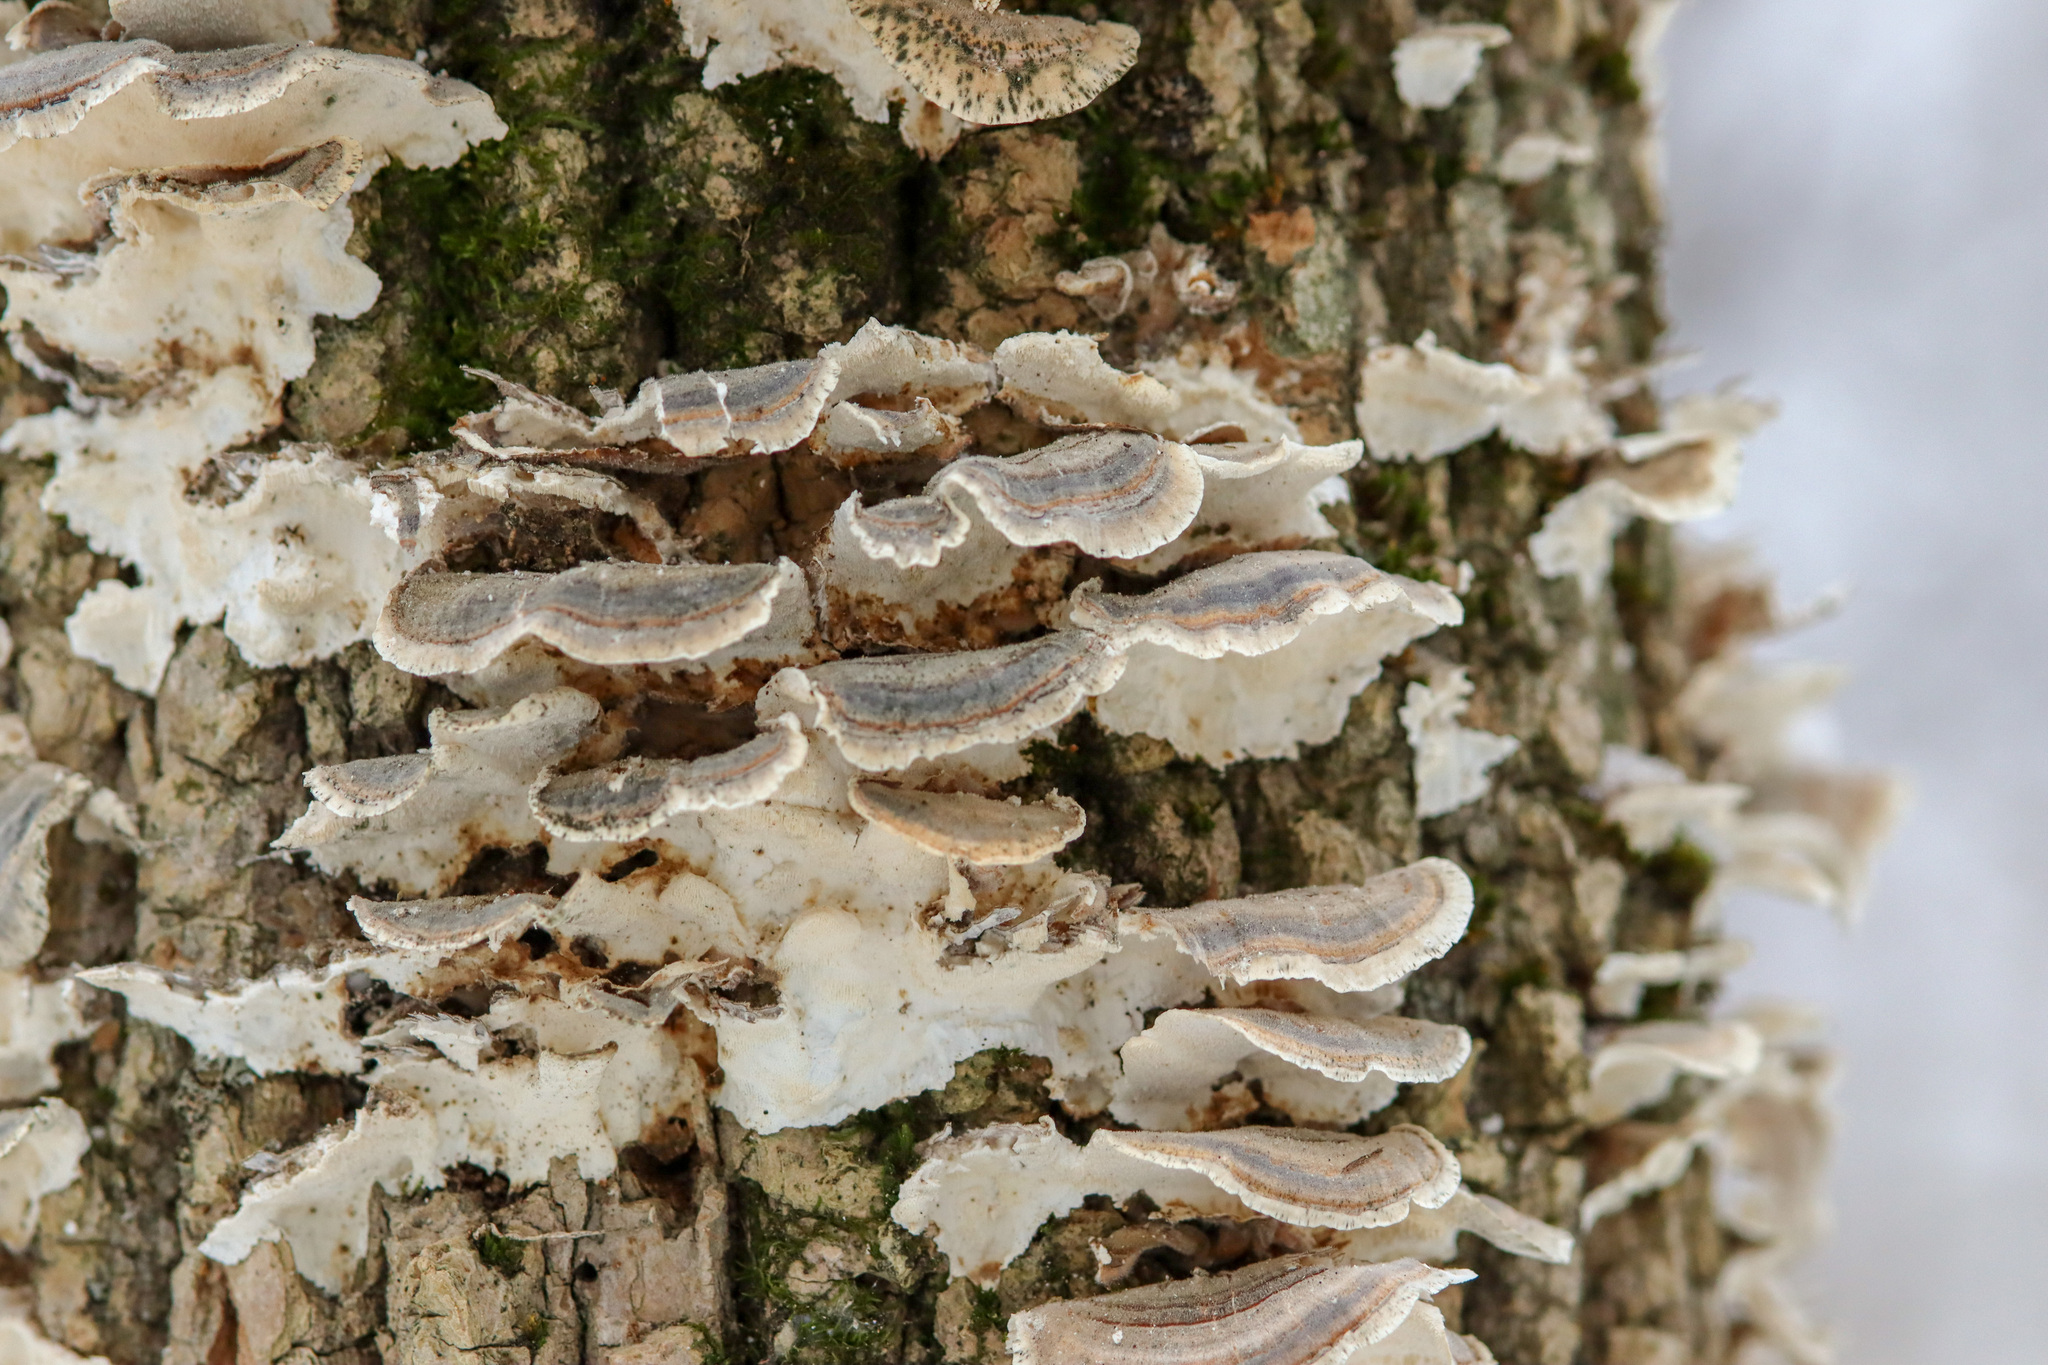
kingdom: Fungi
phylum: Basidiomycota
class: Agaricomycetes
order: Polyporales
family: Polyporaceae
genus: Trametes
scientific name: Trametes versicolor
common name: Turkeytail
